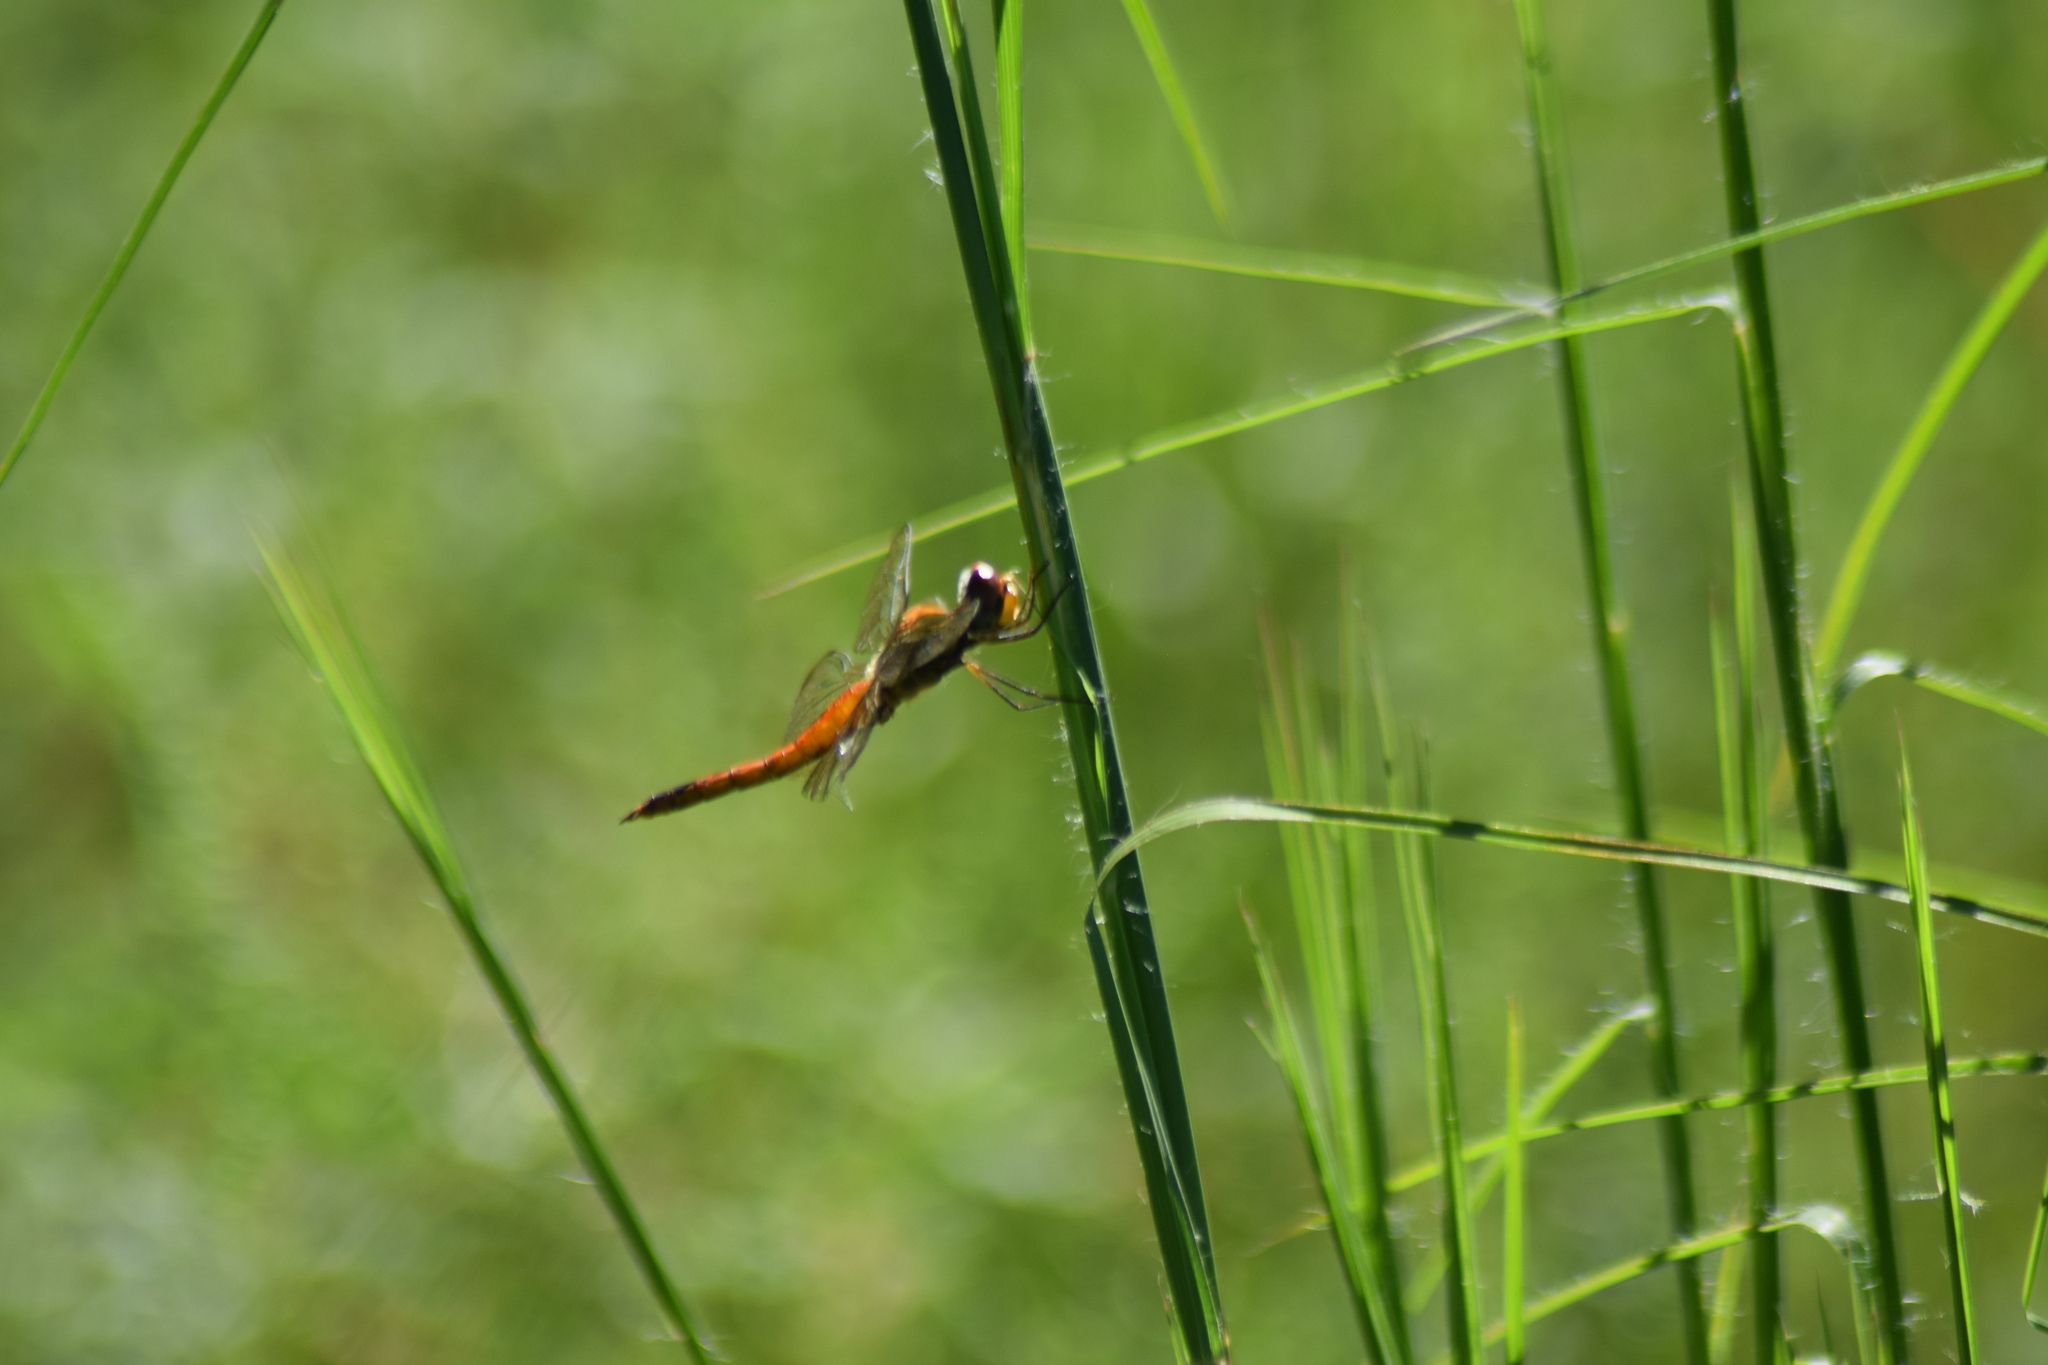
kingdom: Animalia
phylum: Arthropoda
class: Insecta
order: Odonata
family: Libellulidae
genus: Pantala
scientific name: Pantala flavescens
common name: Wandering glider
